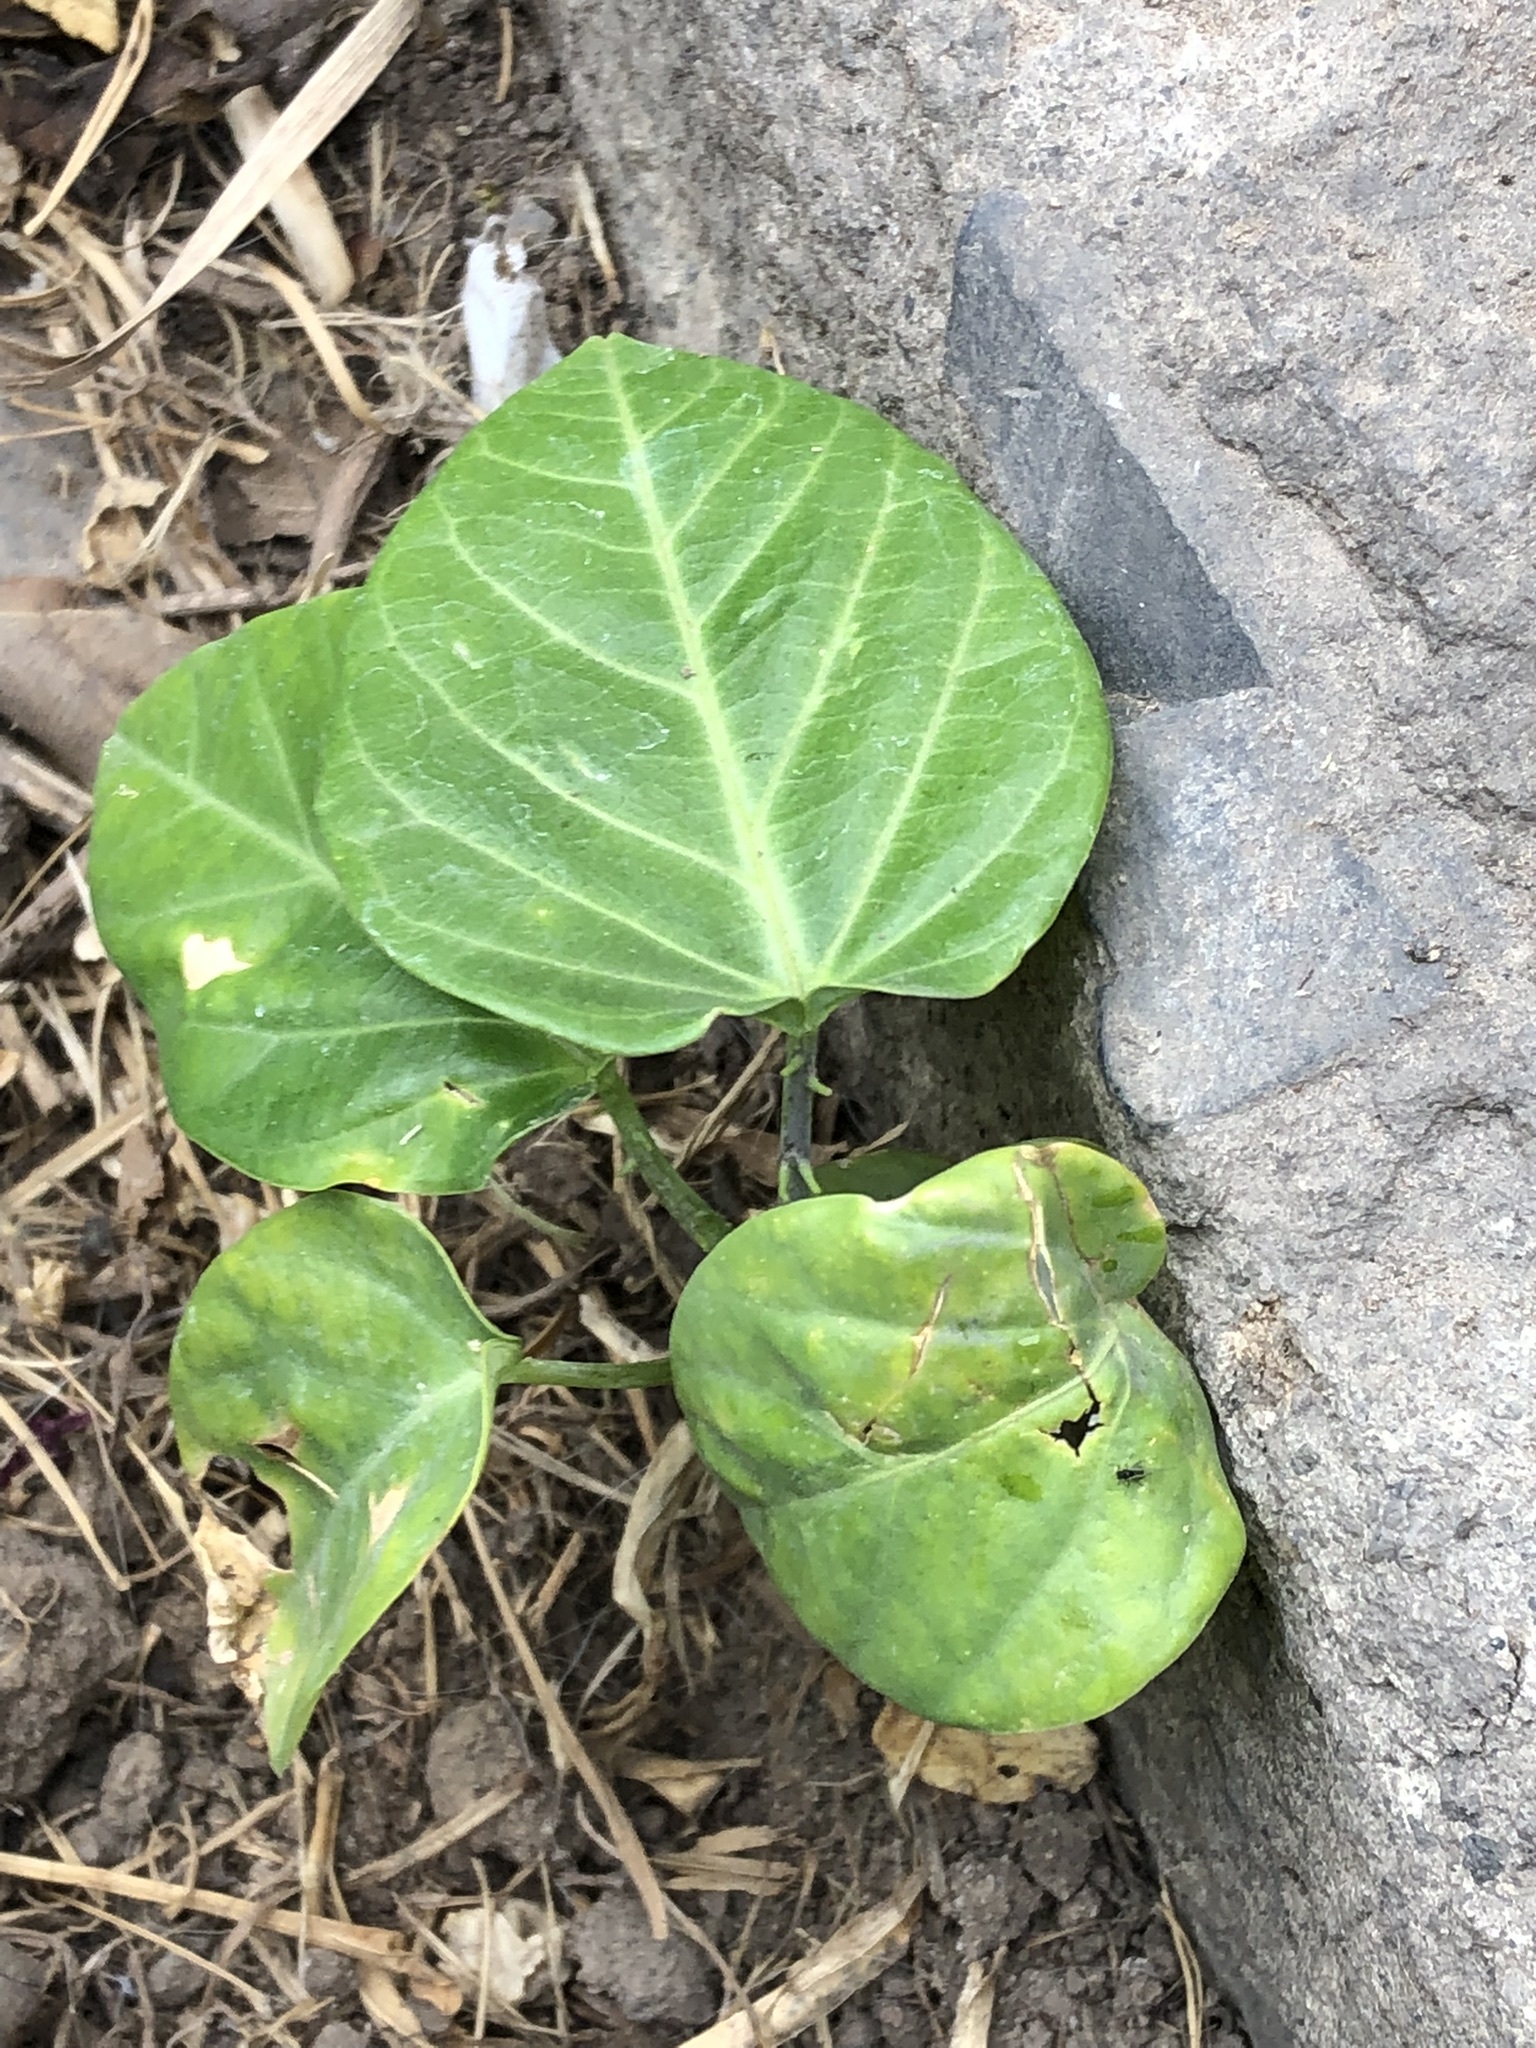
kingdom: Plantae
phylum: Tracheophyta
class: Magnoliopsida
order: Malpighiales
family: Passifloraceae
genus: Passiflora
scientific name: Passiflora ligularis
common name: Sweet granadilla
